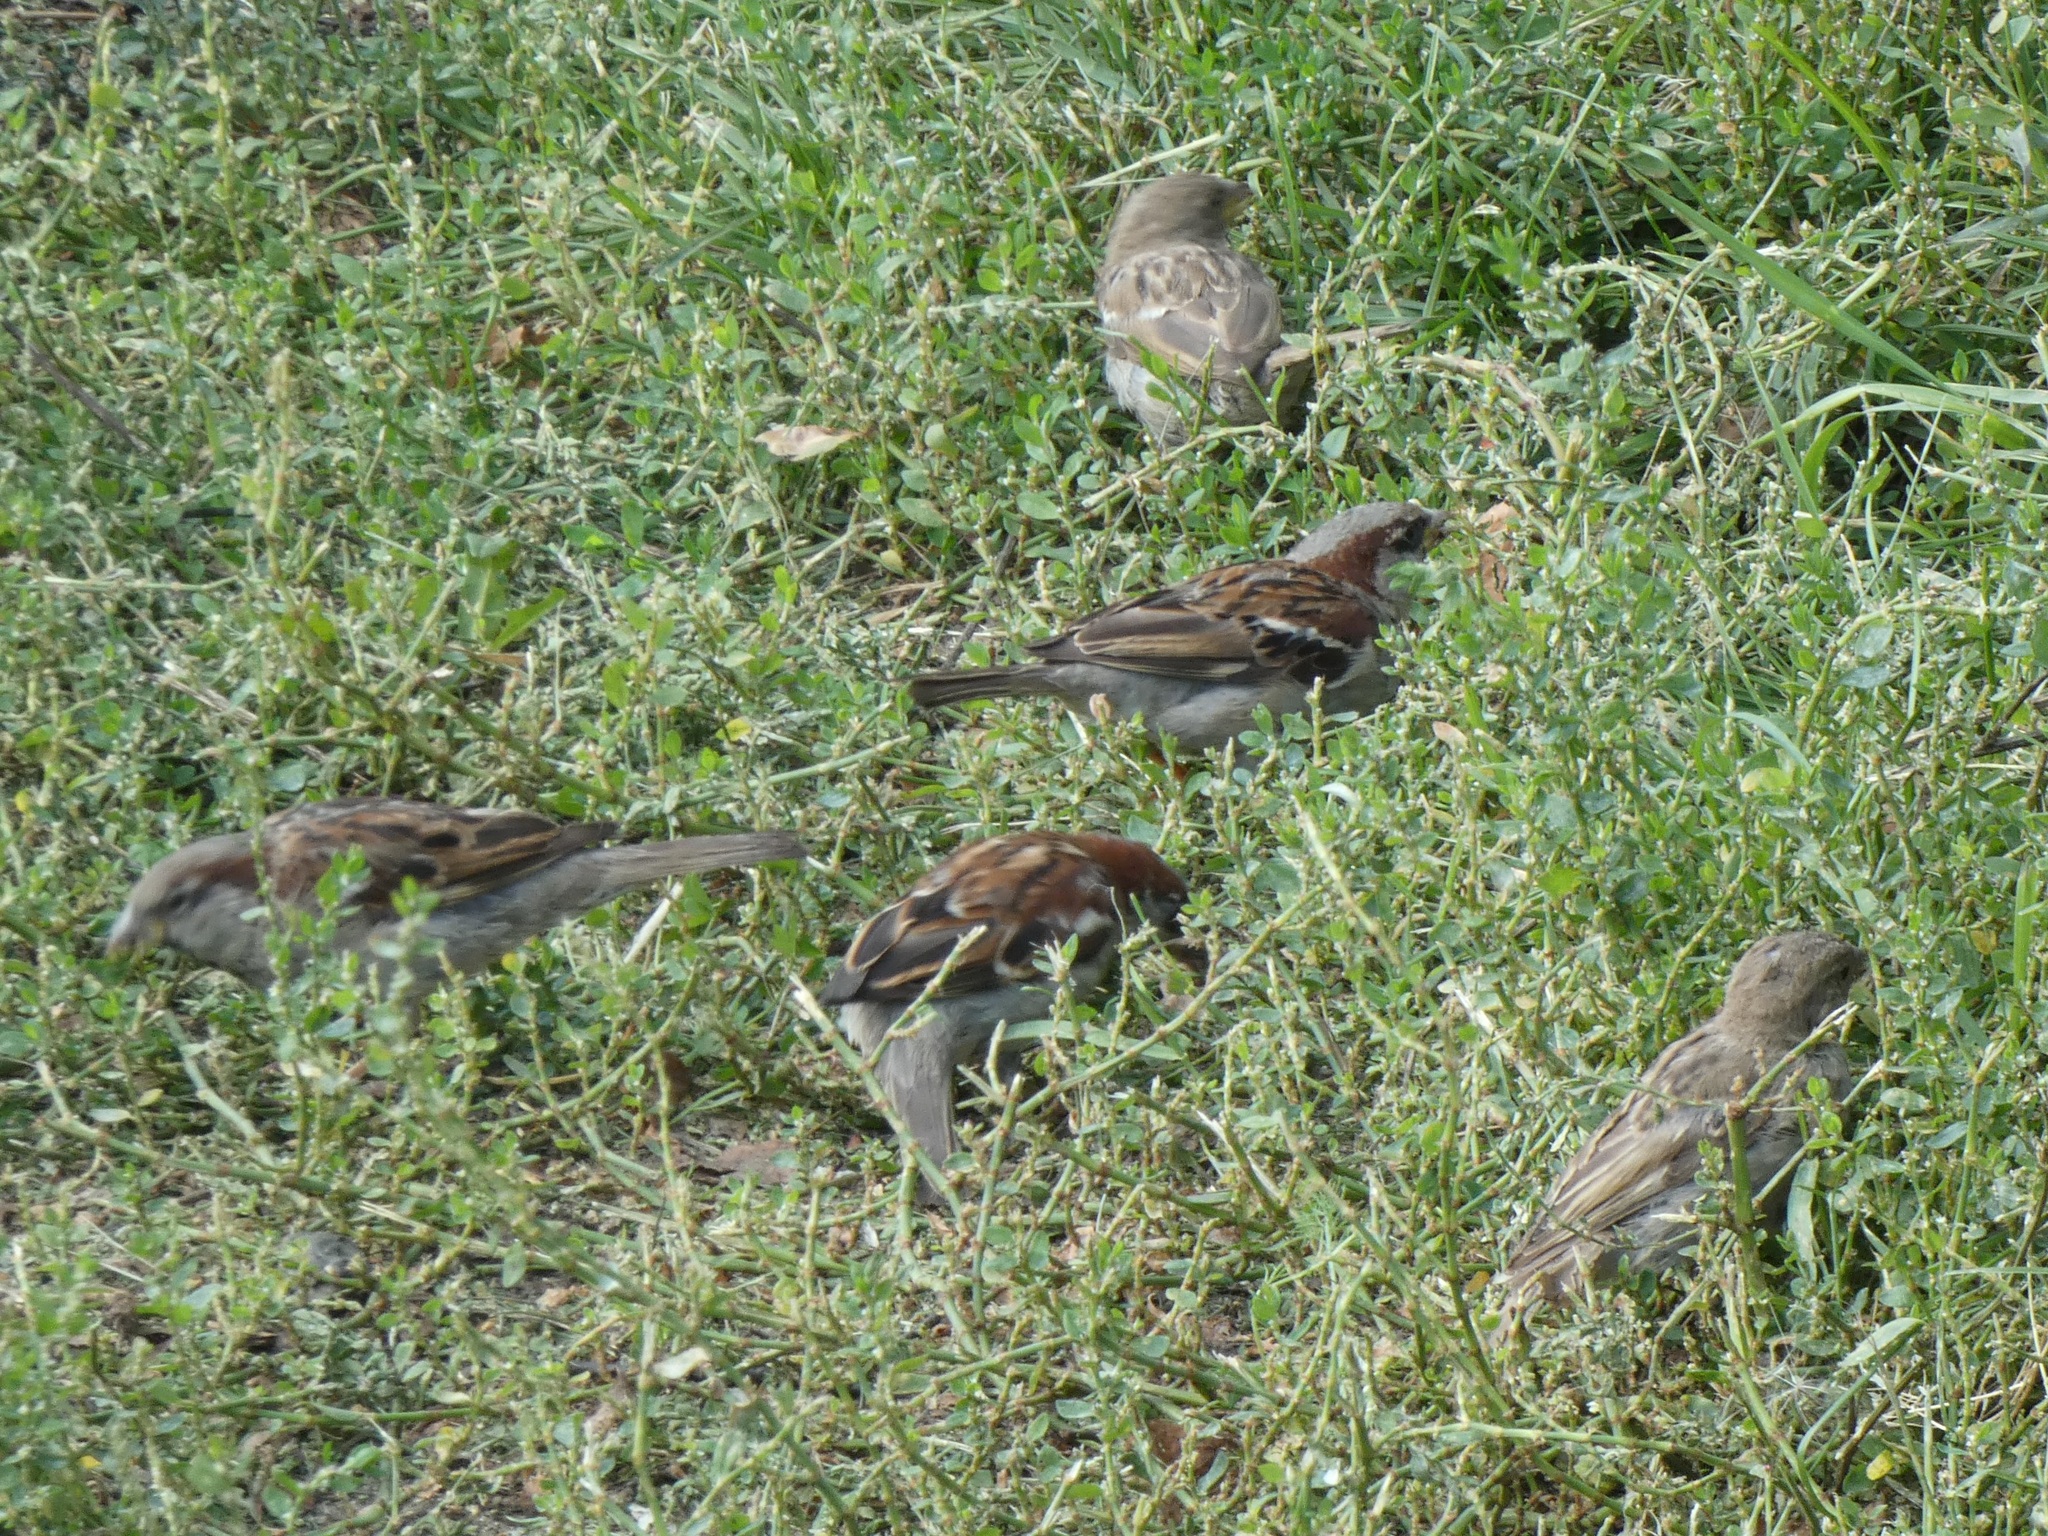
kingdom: Animalia
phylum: Chordata
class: Aves
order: Passeriformes
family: Passeridae
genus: Passer
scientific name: Passer domesticus
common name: House sparrow
